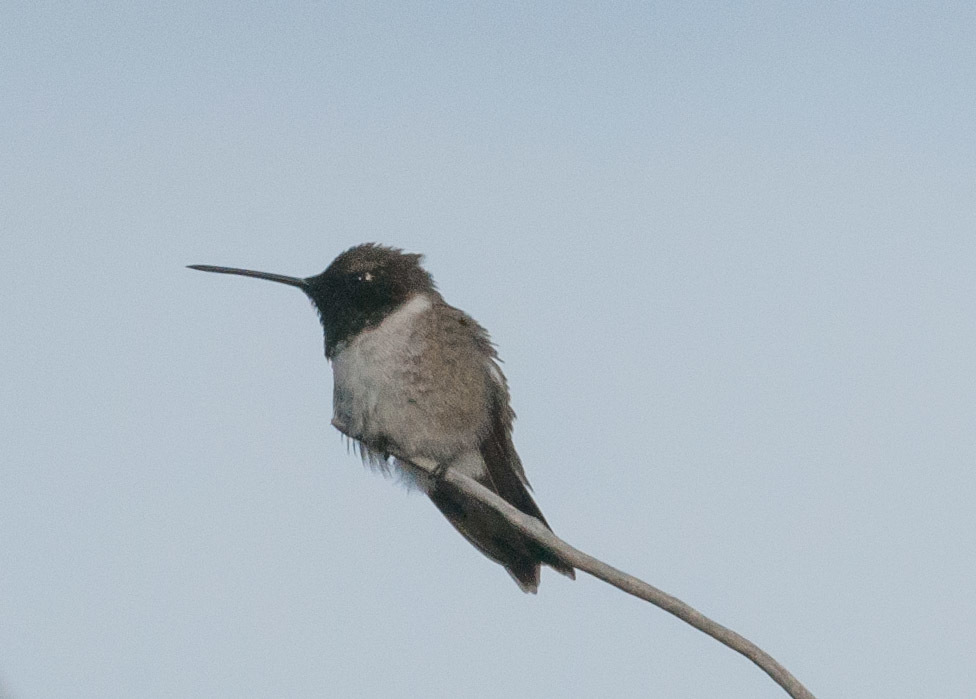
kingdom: Animalia
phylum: Chordata
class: Aves
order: Apodiformes
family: Trochilidae
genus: Archilochus
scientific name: Archilochus alexandri
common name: Black-chinned hummingbird
